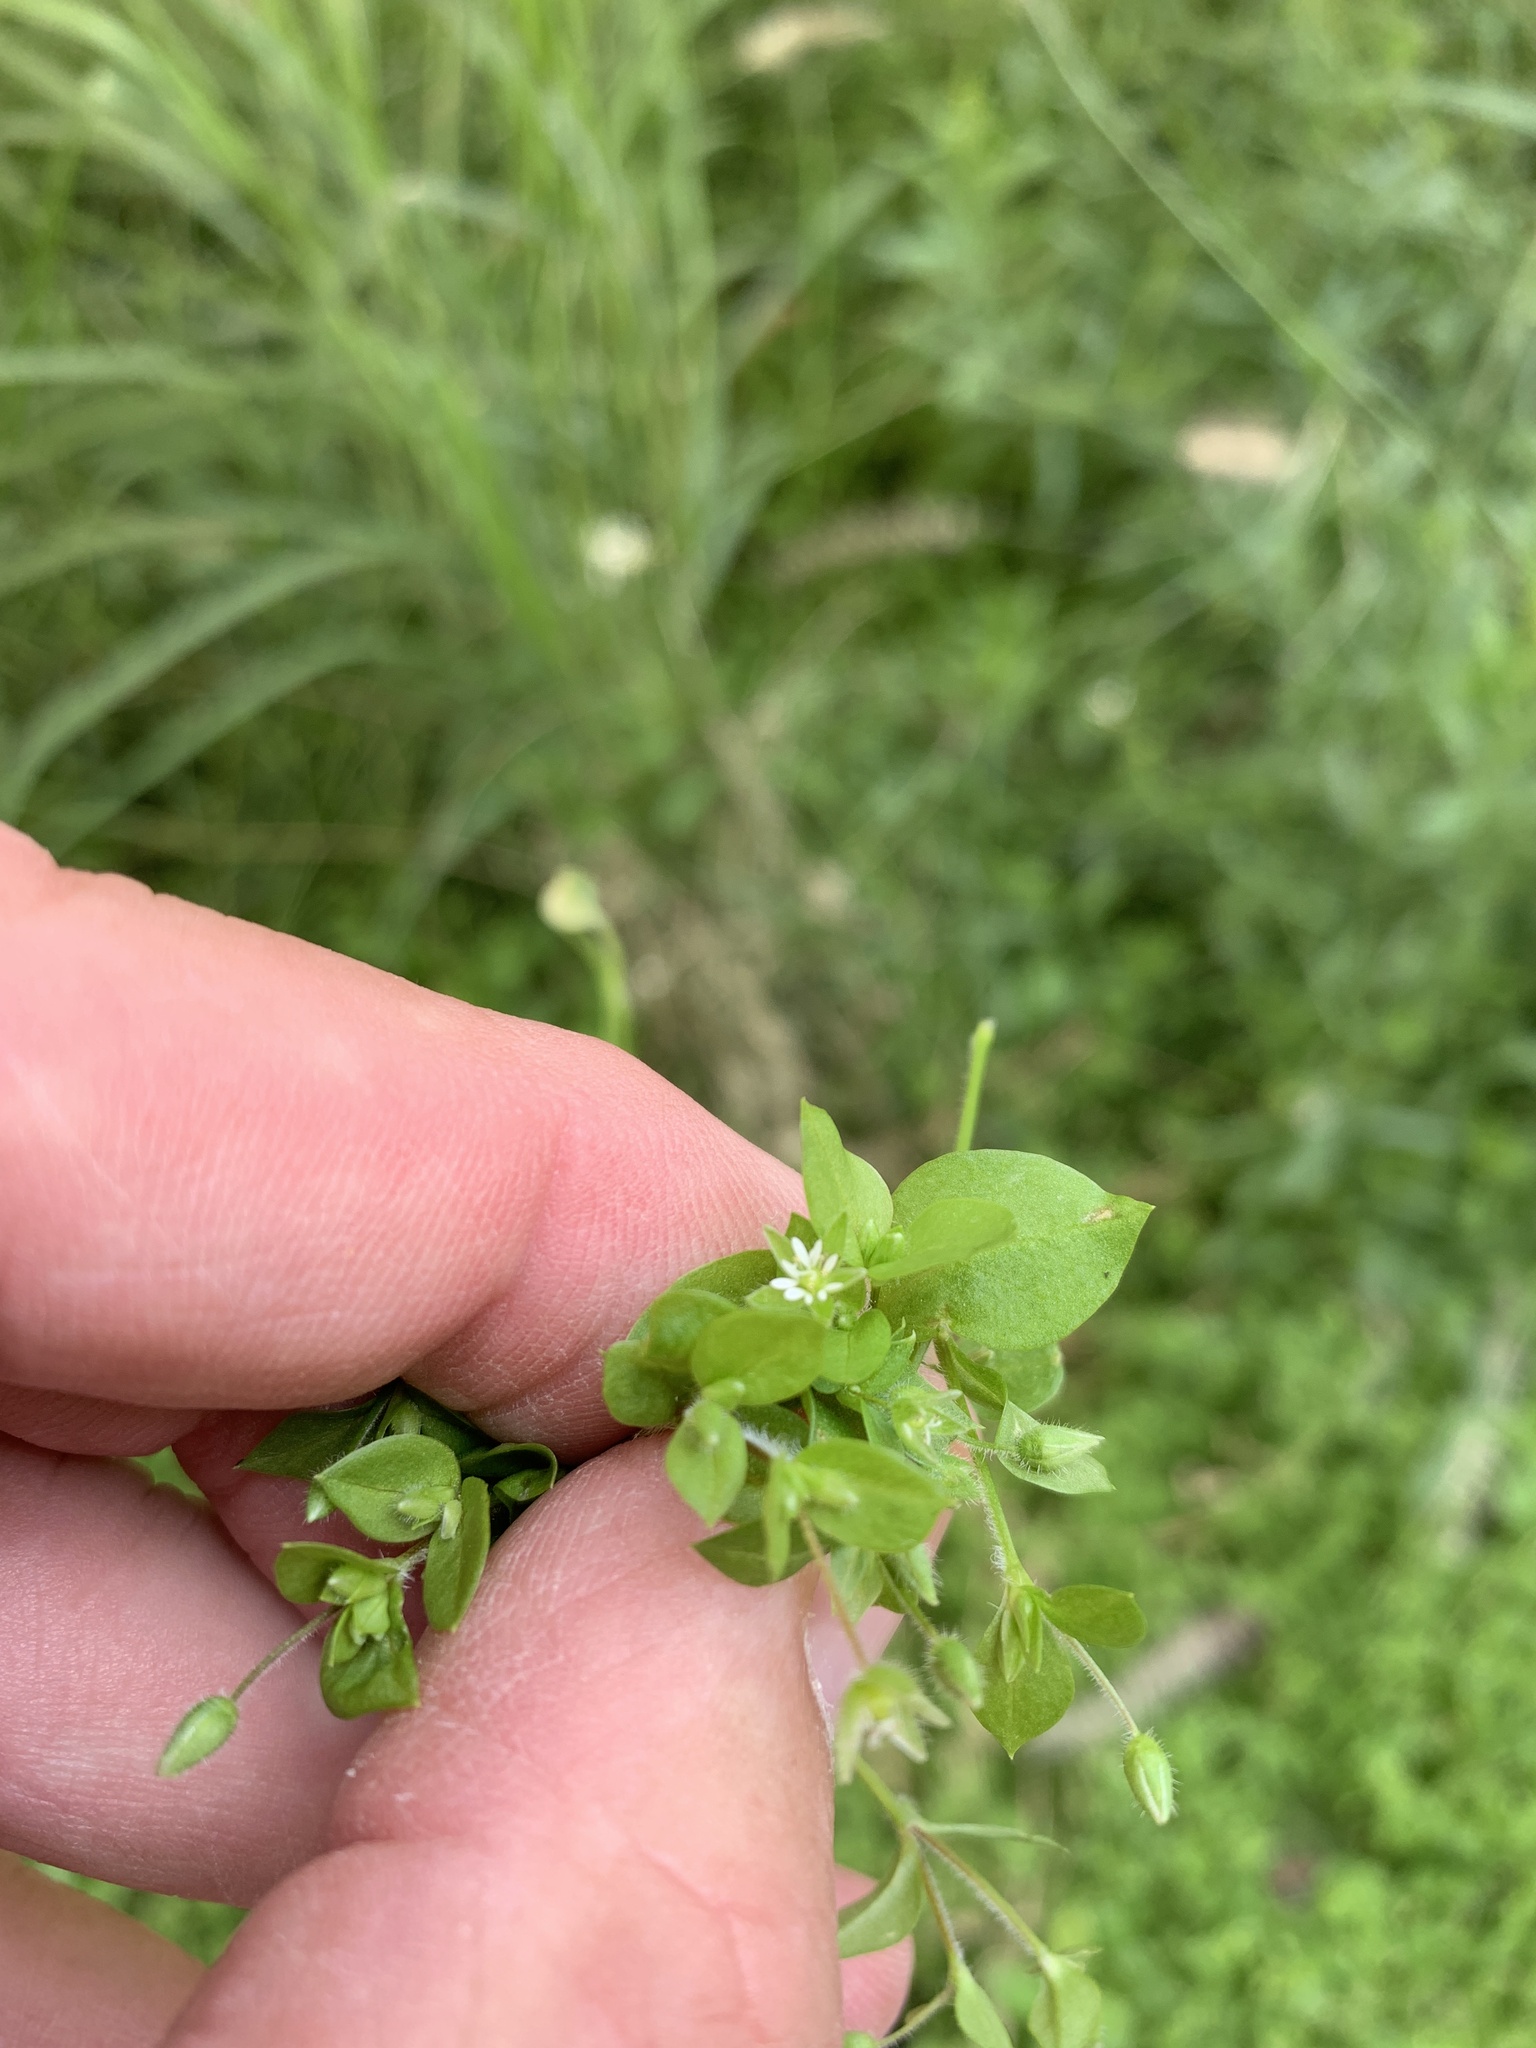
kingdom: Plantae
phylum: Tracheophyta
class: Magnoliopsida
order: Caryophyllales
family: Caryophyllaceae
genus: Stellaria
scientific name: Stellaria media
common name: Common chickweed
